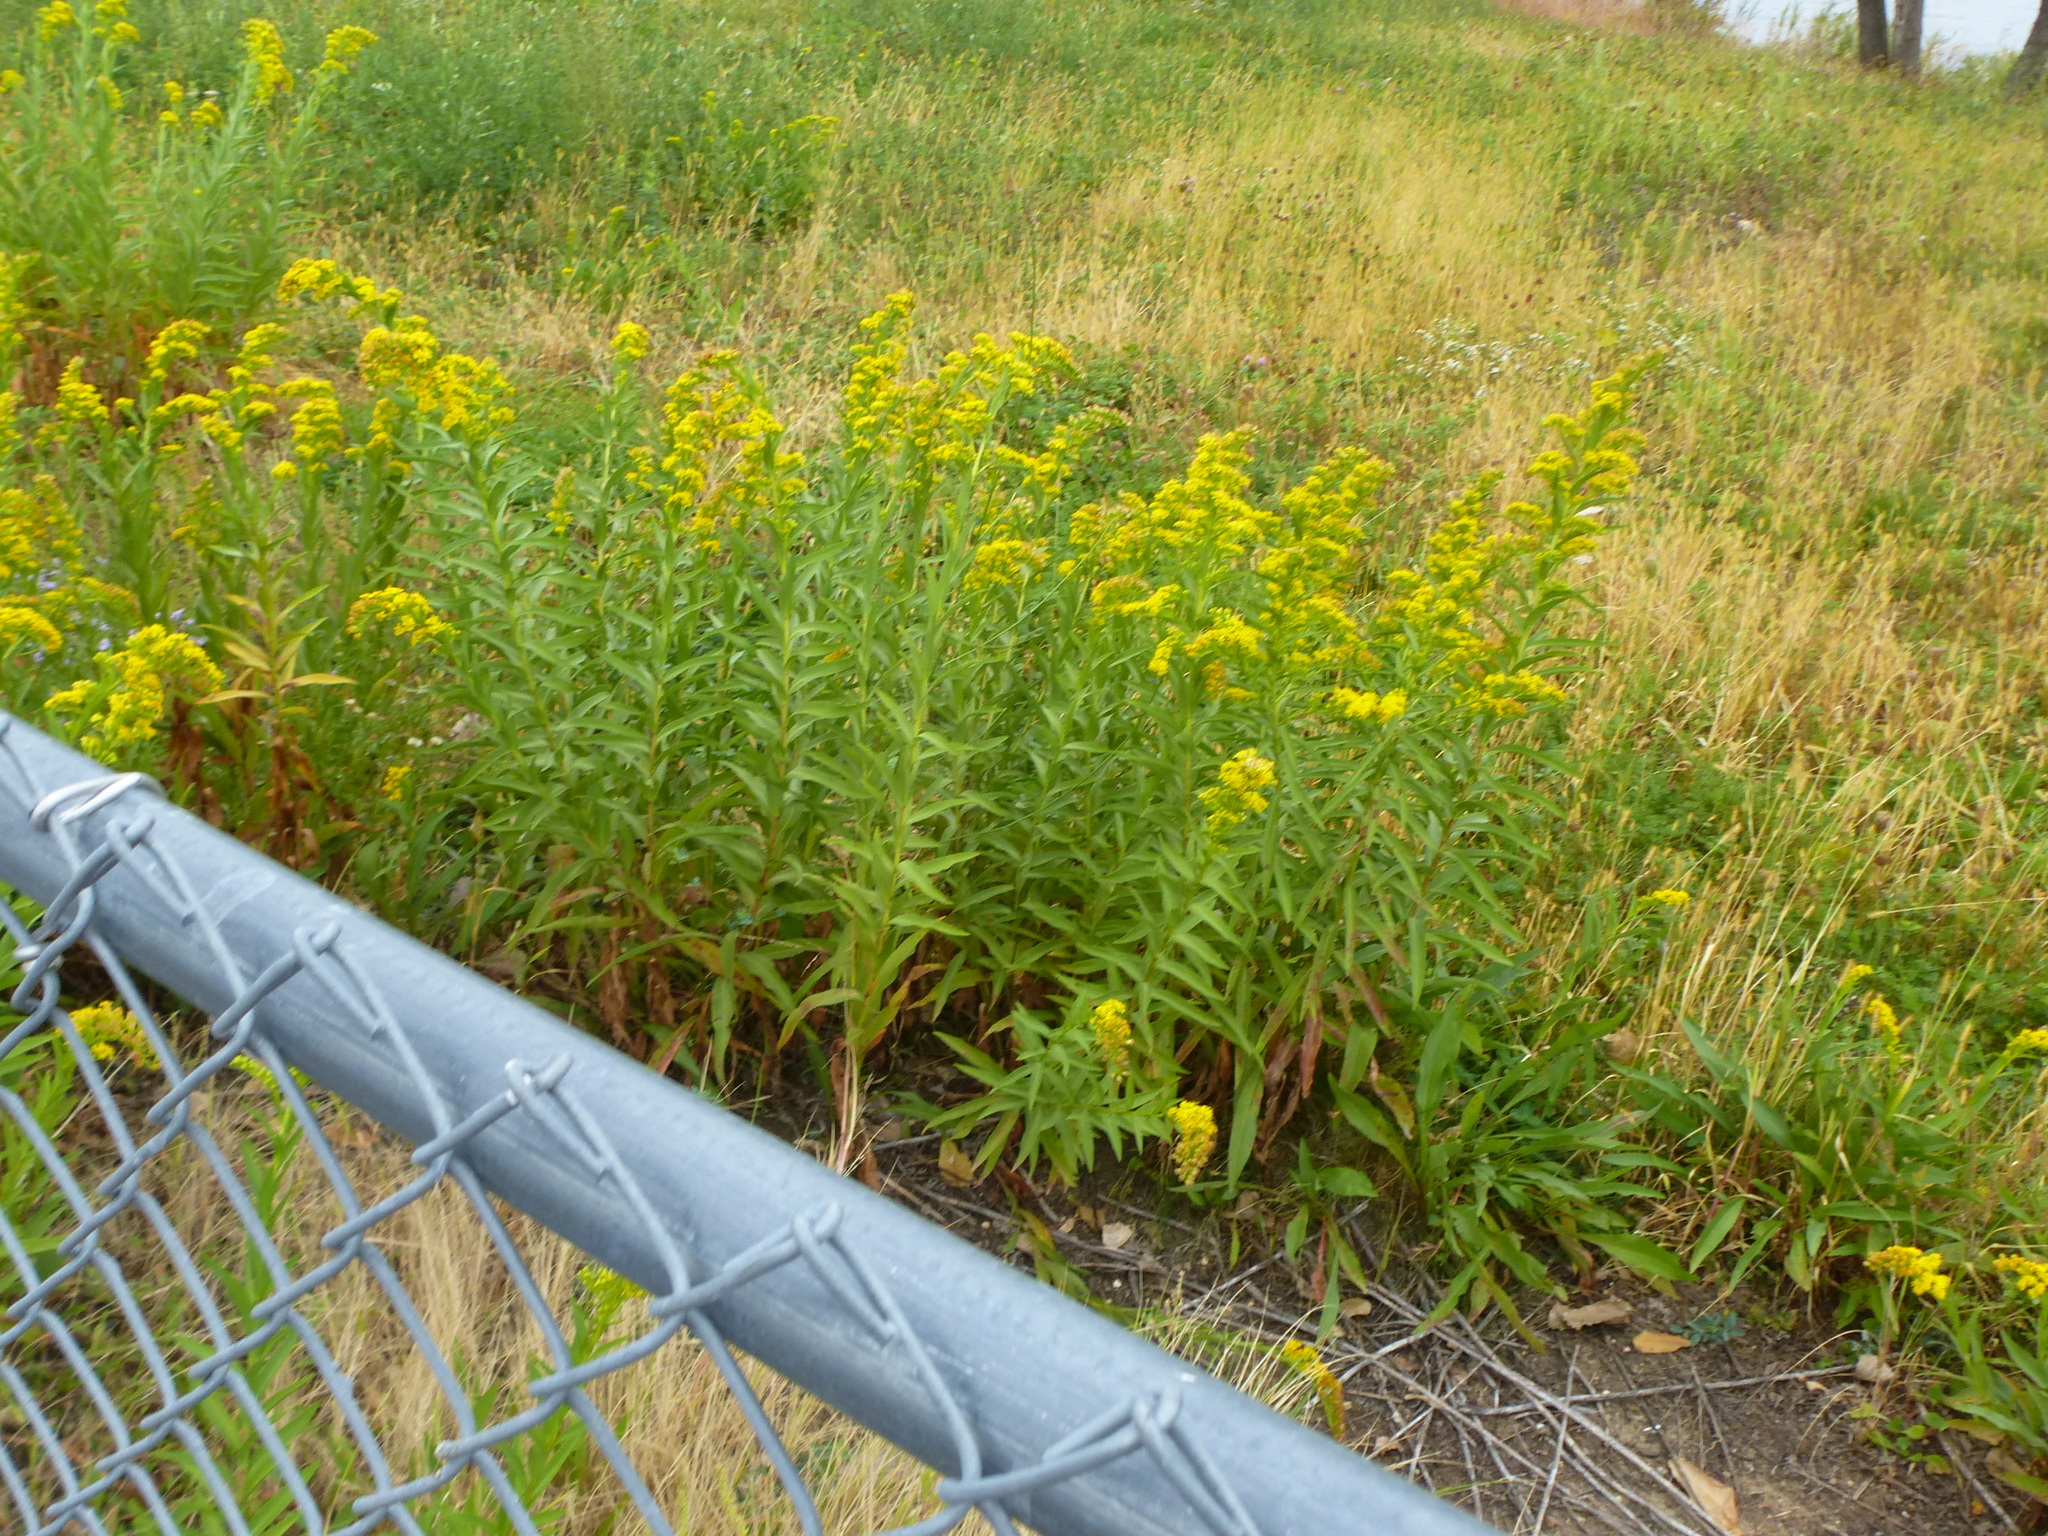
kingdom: Plantae
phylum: Tracheophyta
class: Magnoliopsida
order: Asterales
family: Asteraceae
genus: Solidago
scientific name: Solidago sempervirens
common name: Salt-marsh goldenrod
